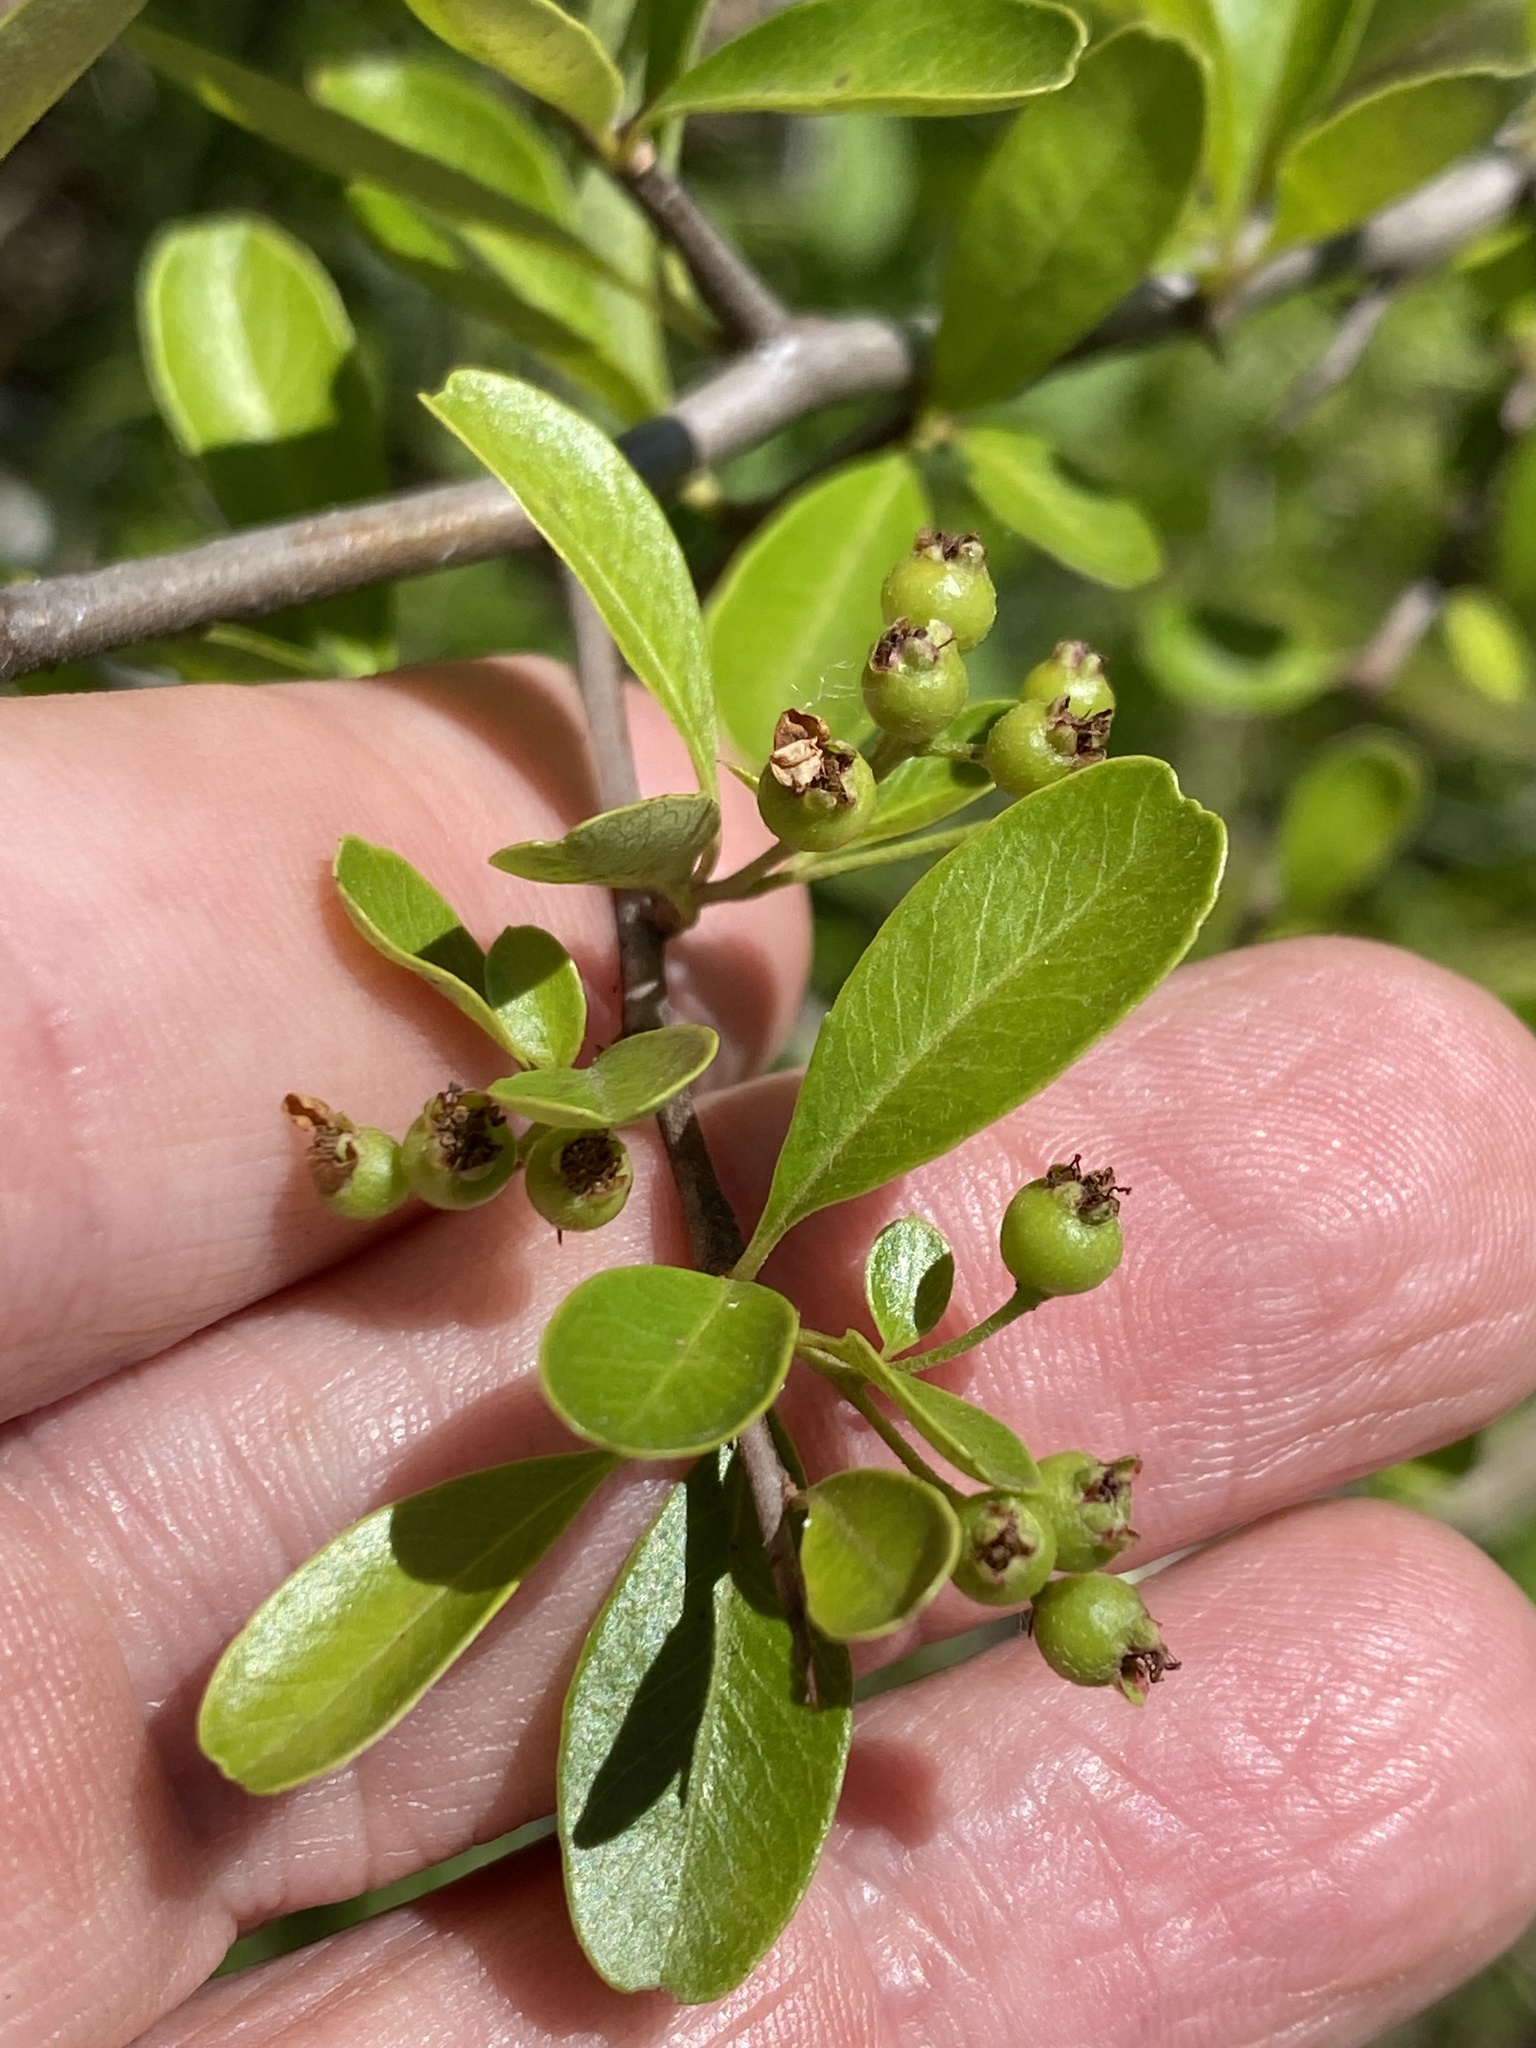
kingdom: Plantae
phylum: Tracheophyta
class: Magnoliopsida
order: Rosales
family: Rosaceae
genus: Pyracantha
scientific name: Pyracantha koidzumii
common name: Formosa firethorn
